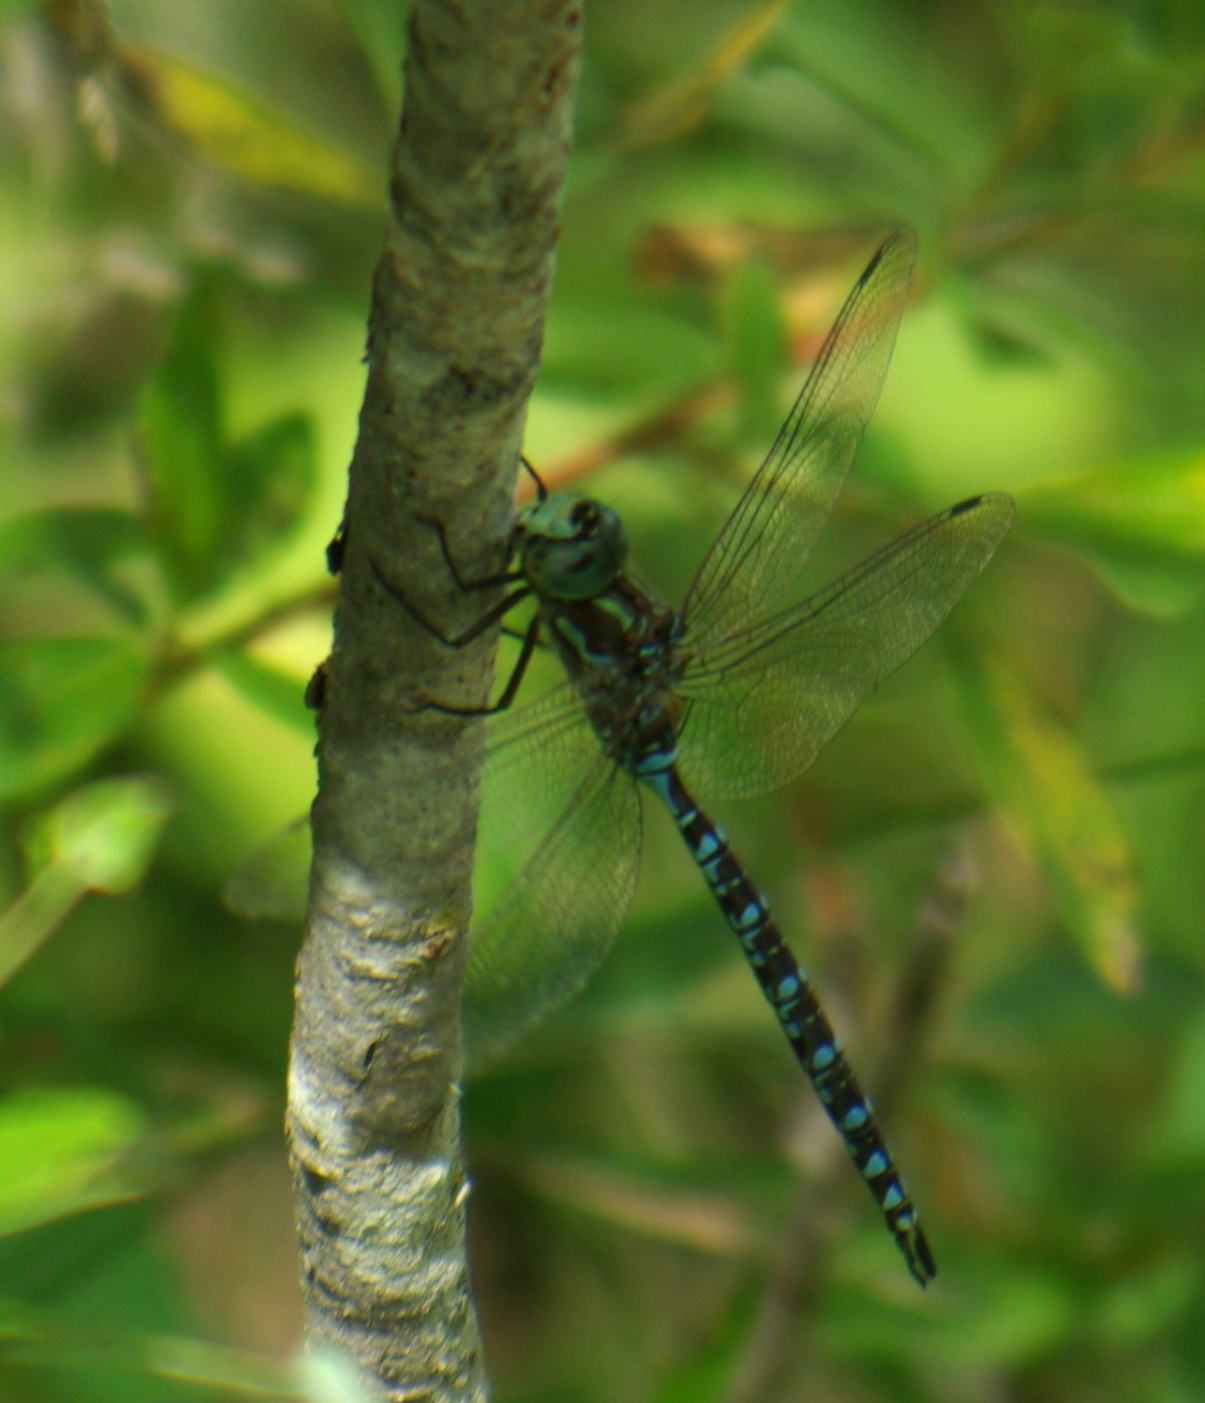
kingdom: Animalia
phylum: Arthropoda
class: Insecta
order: Odonata
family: Aeshnidae
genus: Aeshna
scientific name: Aeshna canadensis
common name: Canada darner
